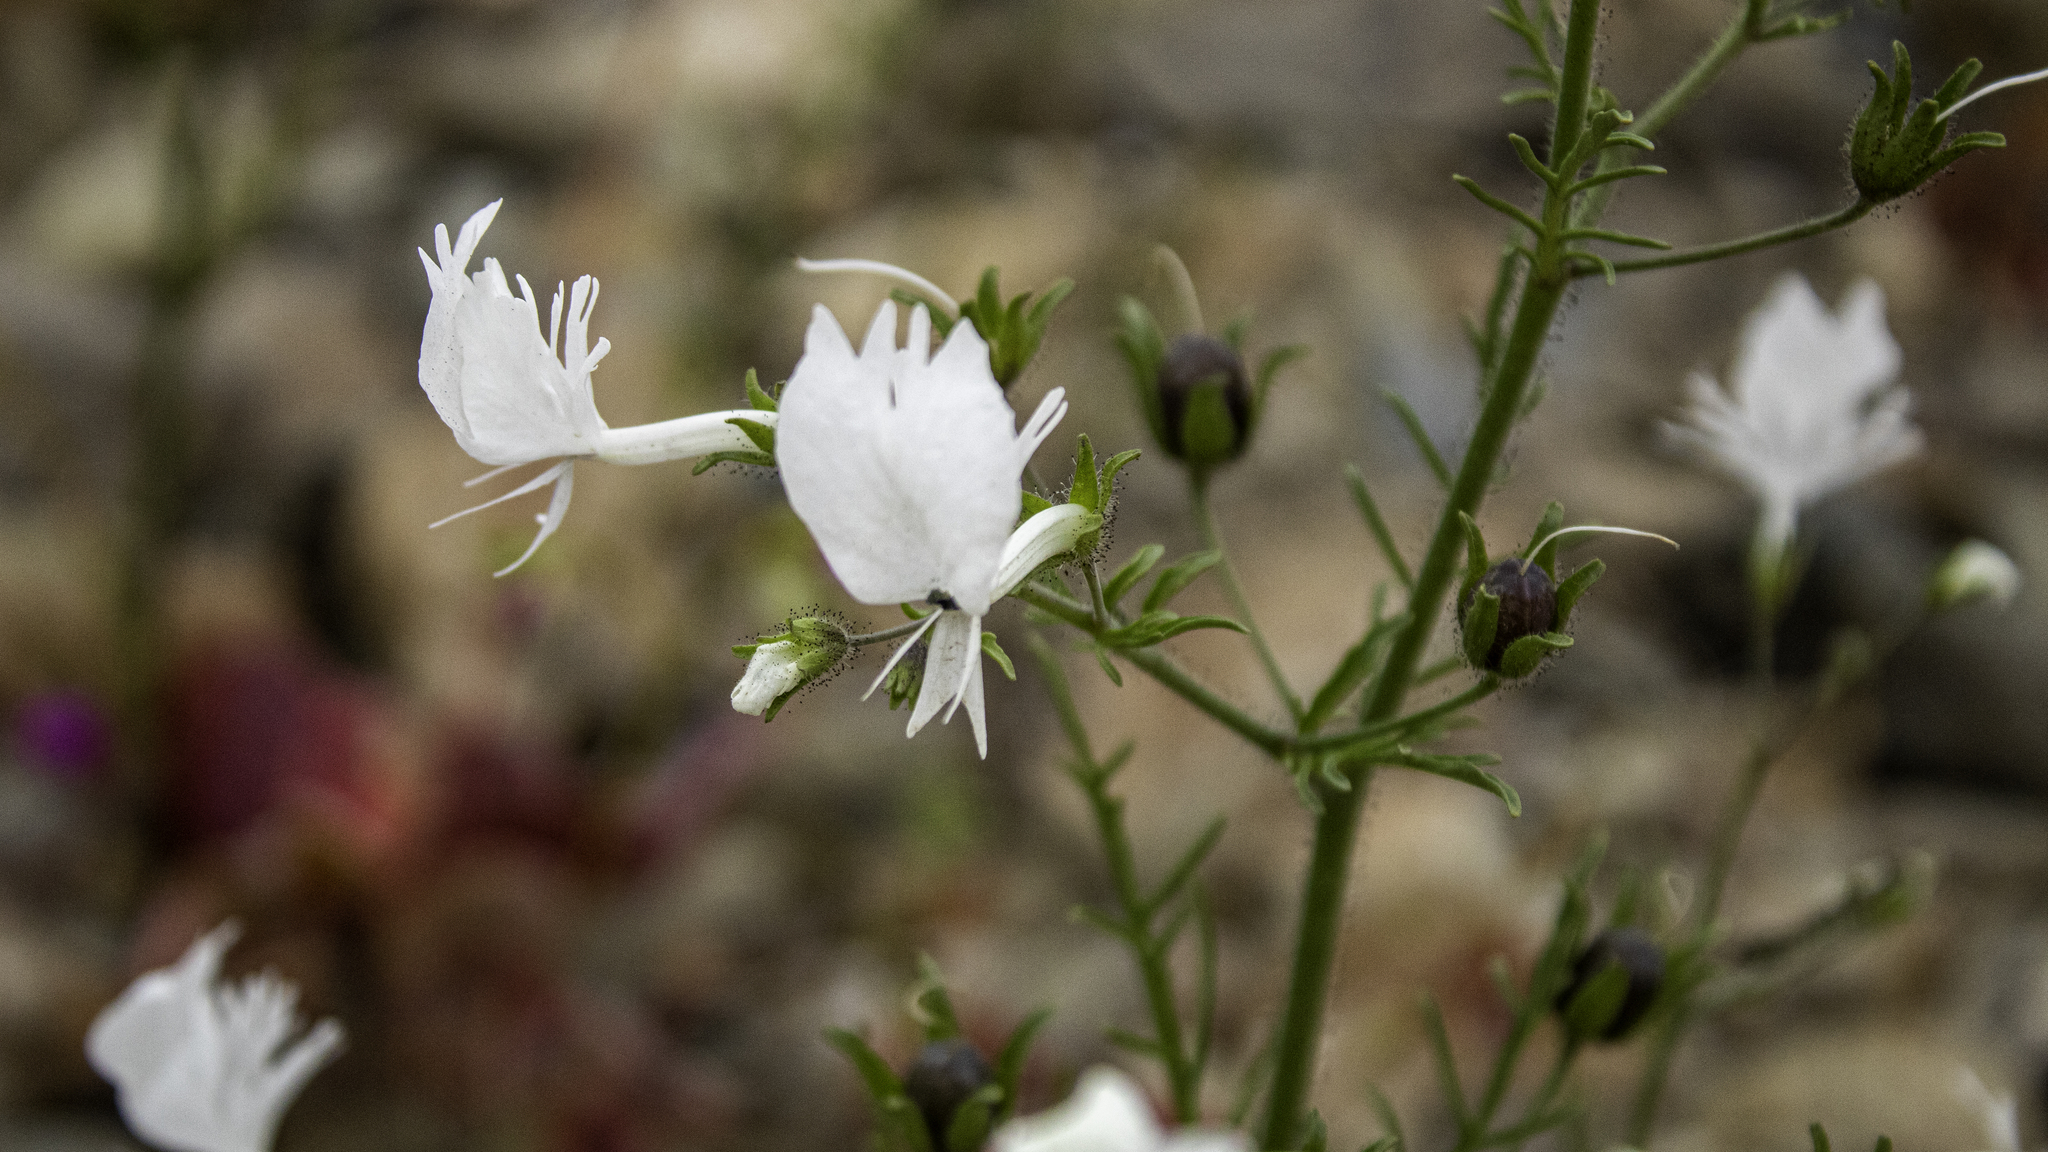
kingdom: Plantae
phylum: Tracheophyta
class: Magnoliopsida
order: Solanales
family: Solanaceae
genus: Schizanthus
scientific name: Schizanthus candidus
